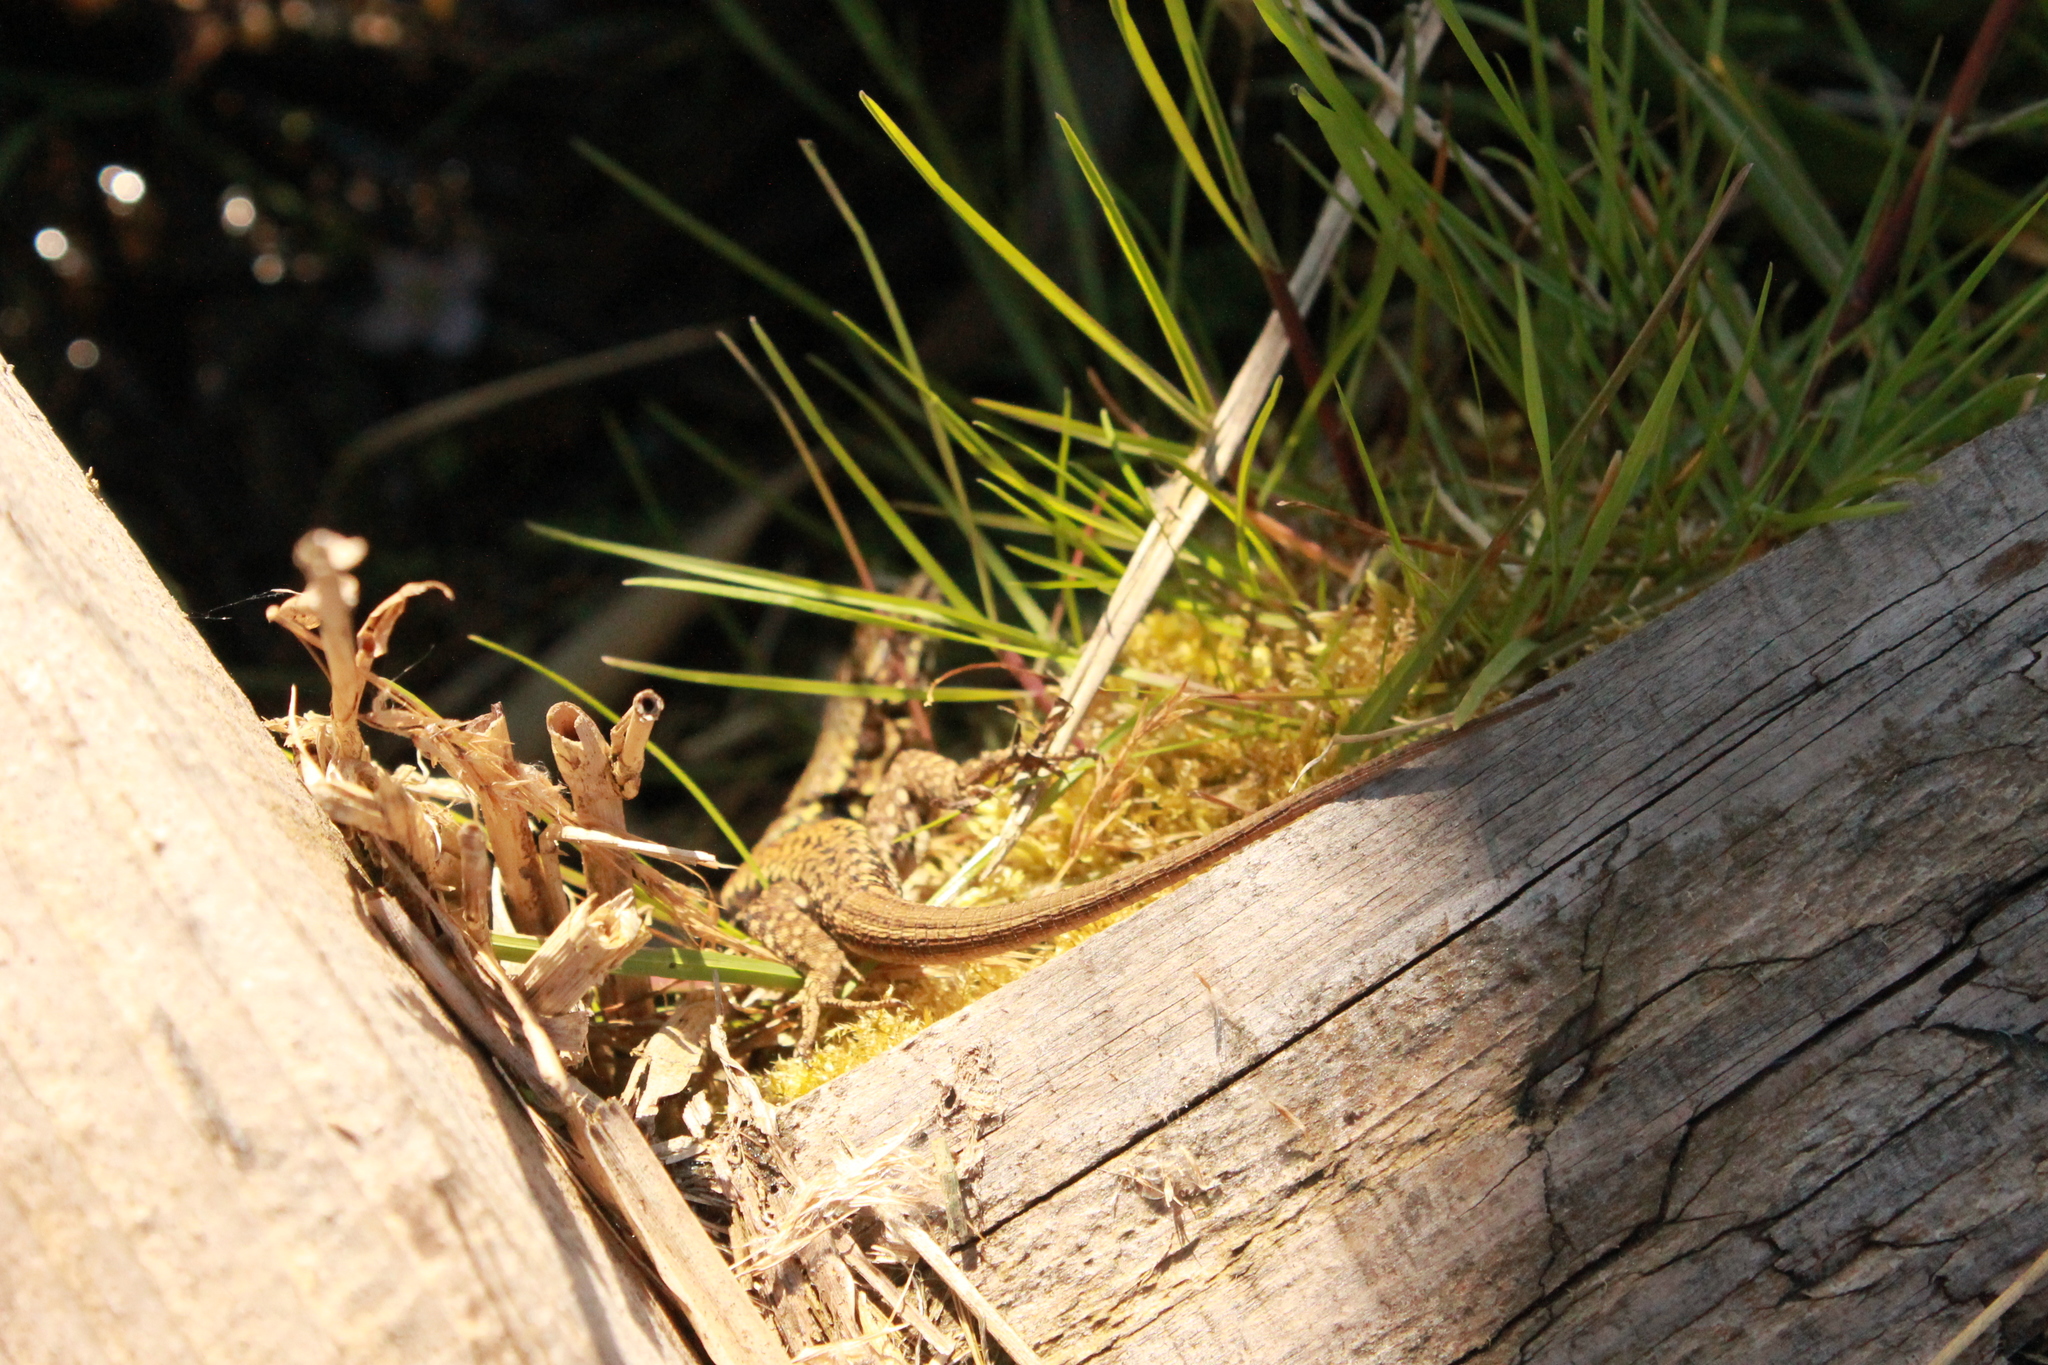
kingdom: Animalia
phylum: Chordata
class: Squamata
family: Lacertidae
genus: Podarcis
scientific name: Podarcis muralis
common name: Common wall lizard
